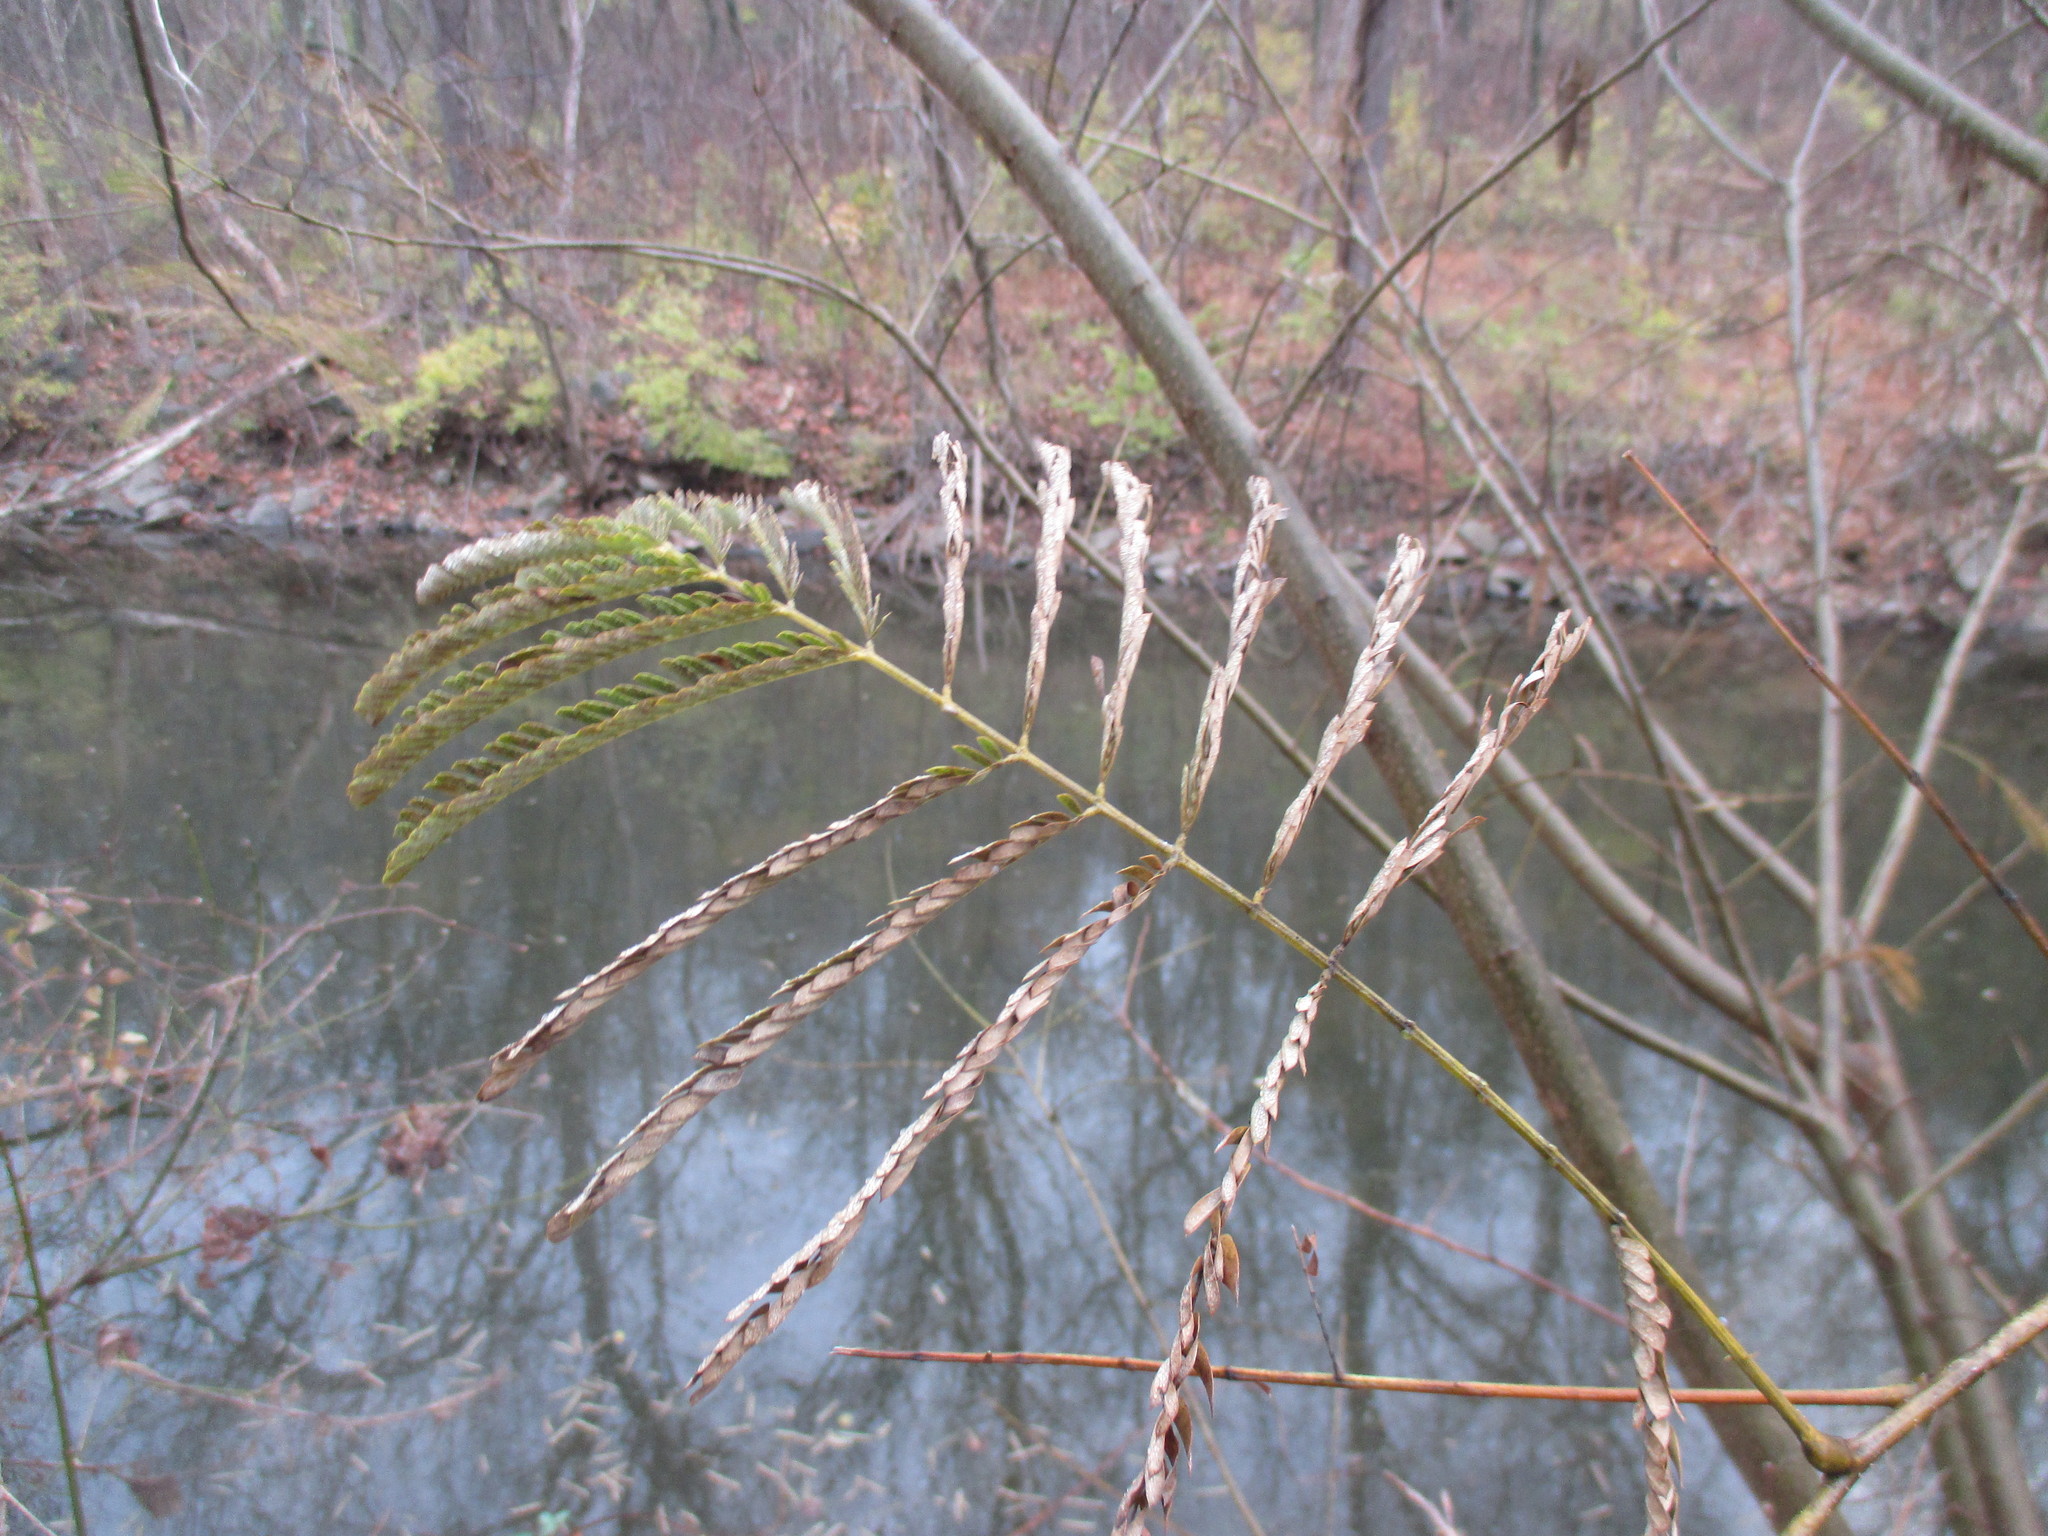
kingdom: Plantae
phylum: Tracheophyta
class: Magnoliopsida
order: Fabales
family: Fabaceae
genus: Albizia
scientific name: Albizia julibrissin
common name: Silktree
